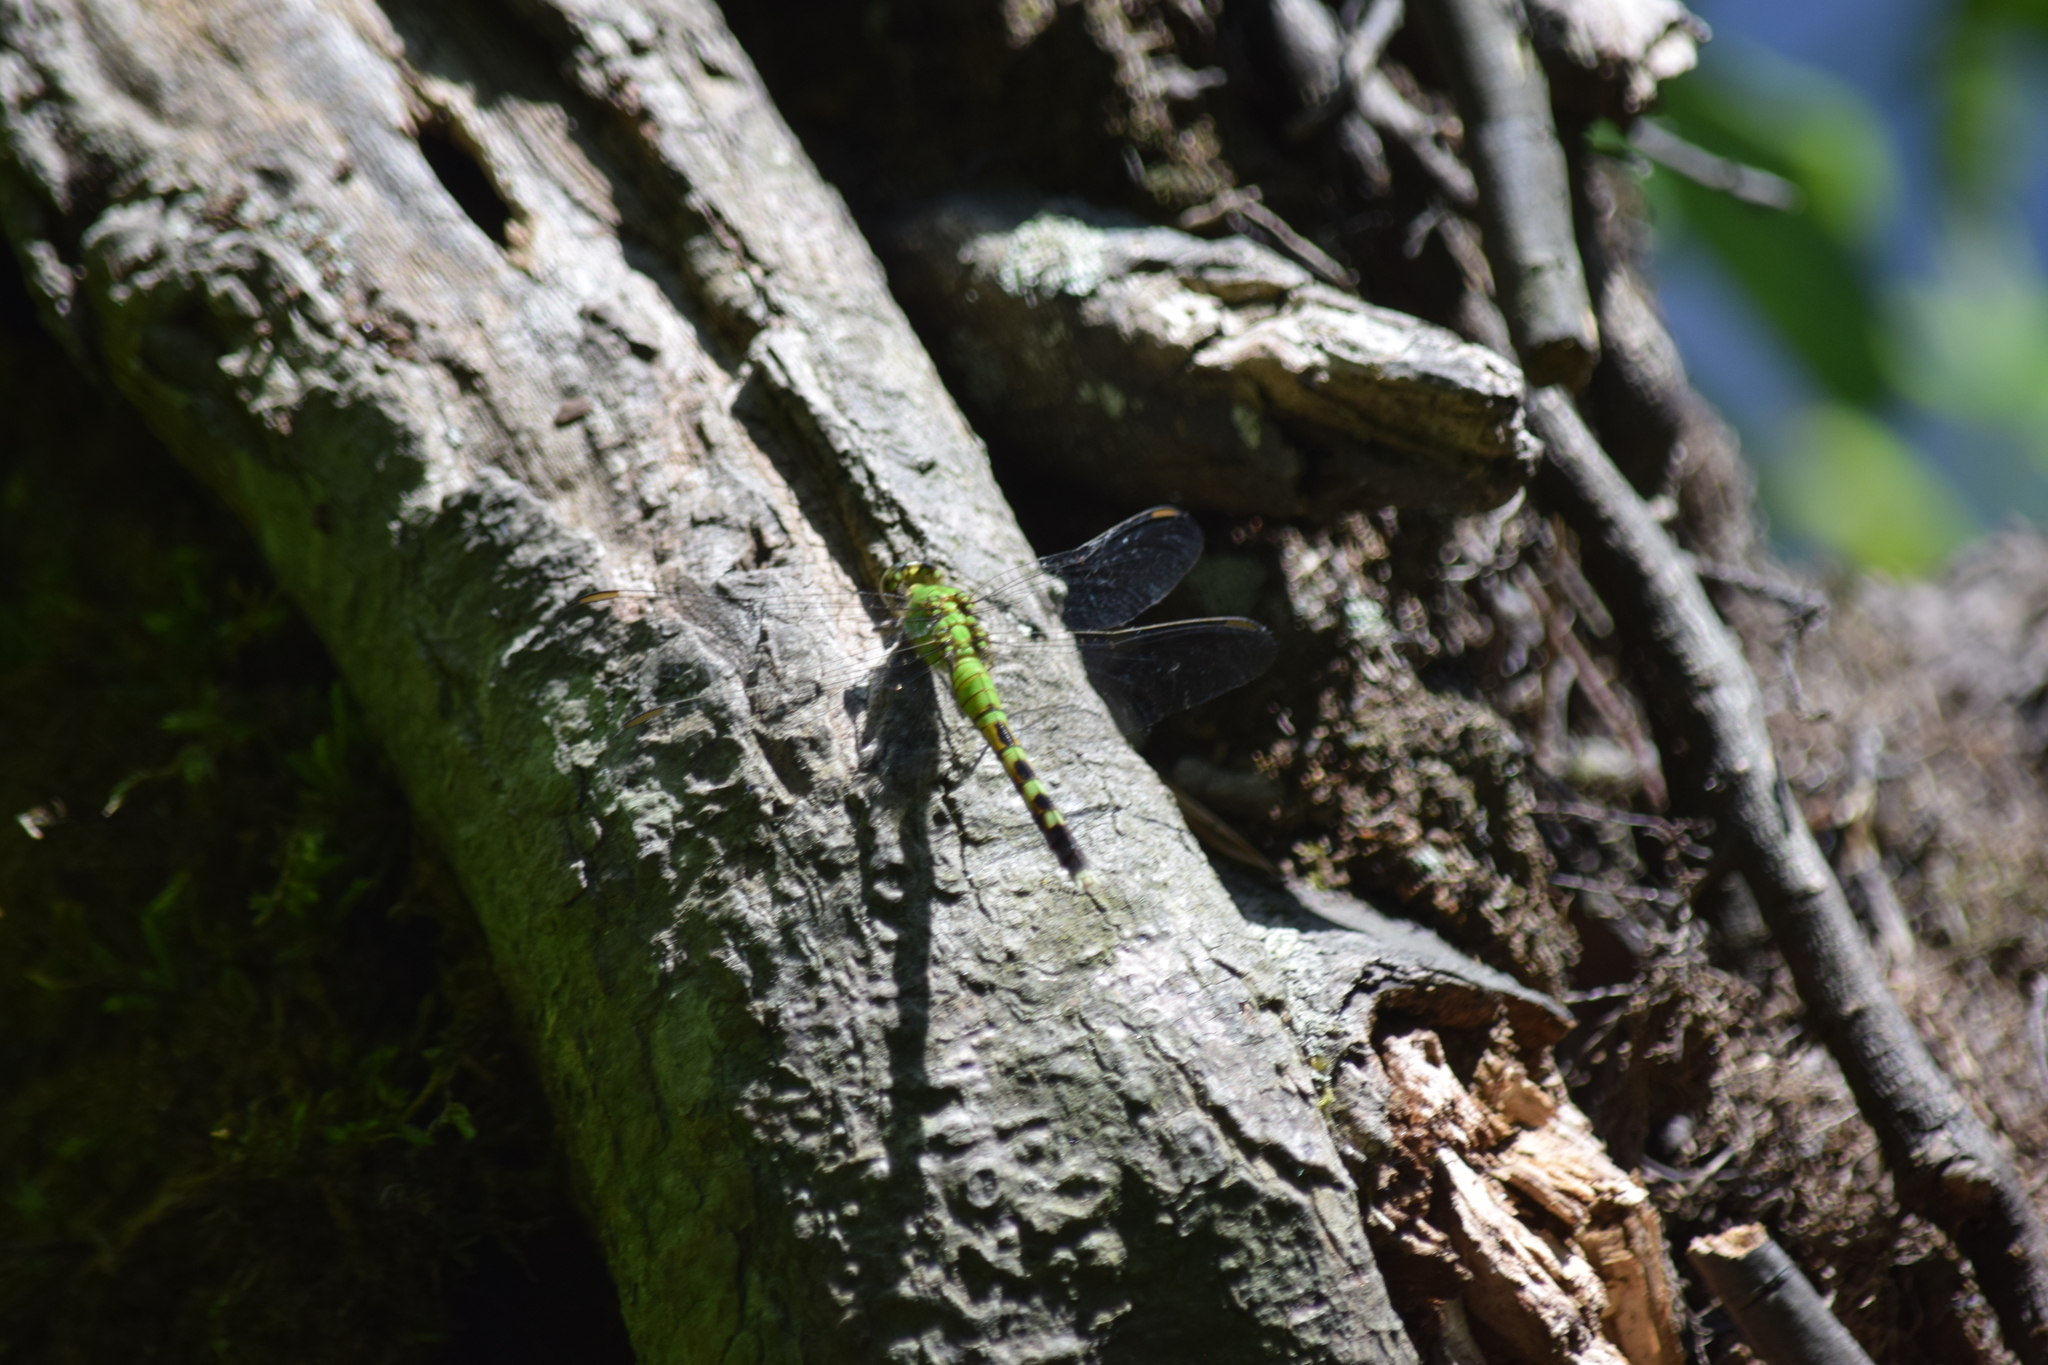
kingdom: Animalia
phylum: Arthropoda
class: Insecta
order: Odonata
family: Libellulidae
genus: Erythemis
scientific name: Erythemis simplicicollis
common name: Eastern pondhawk
